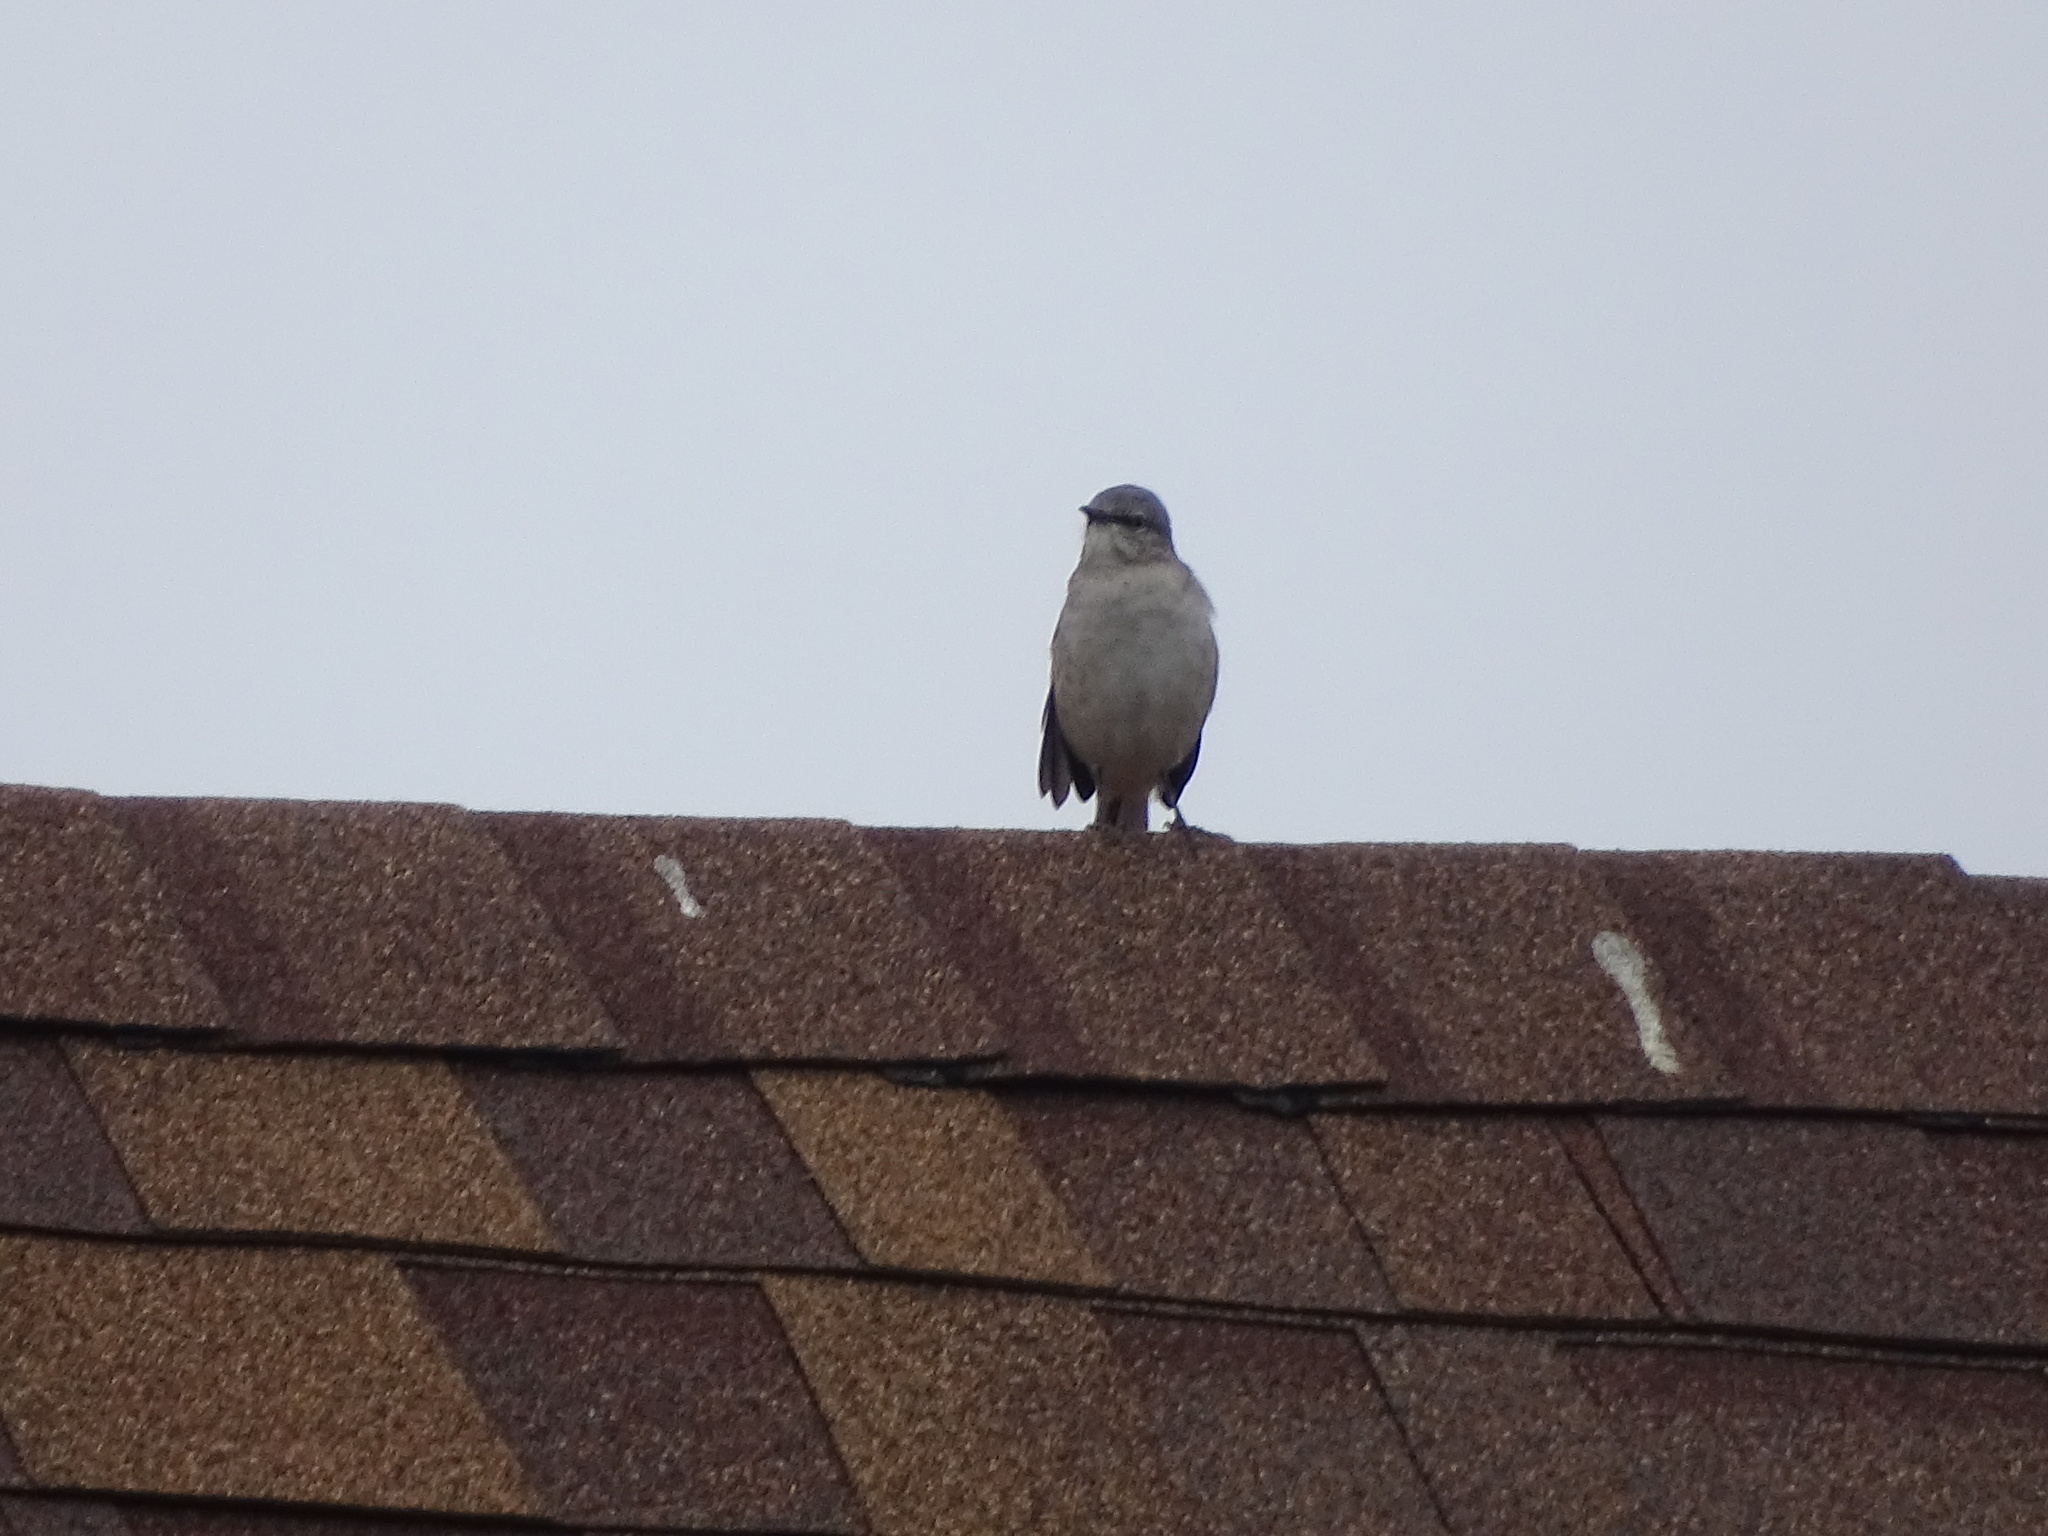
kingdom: Animalia
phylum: Chordata
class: Aves
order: Passeriformes
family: Mimidae
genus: Mimus
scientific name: Mimus polyglottos
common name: Northern mockingbird
